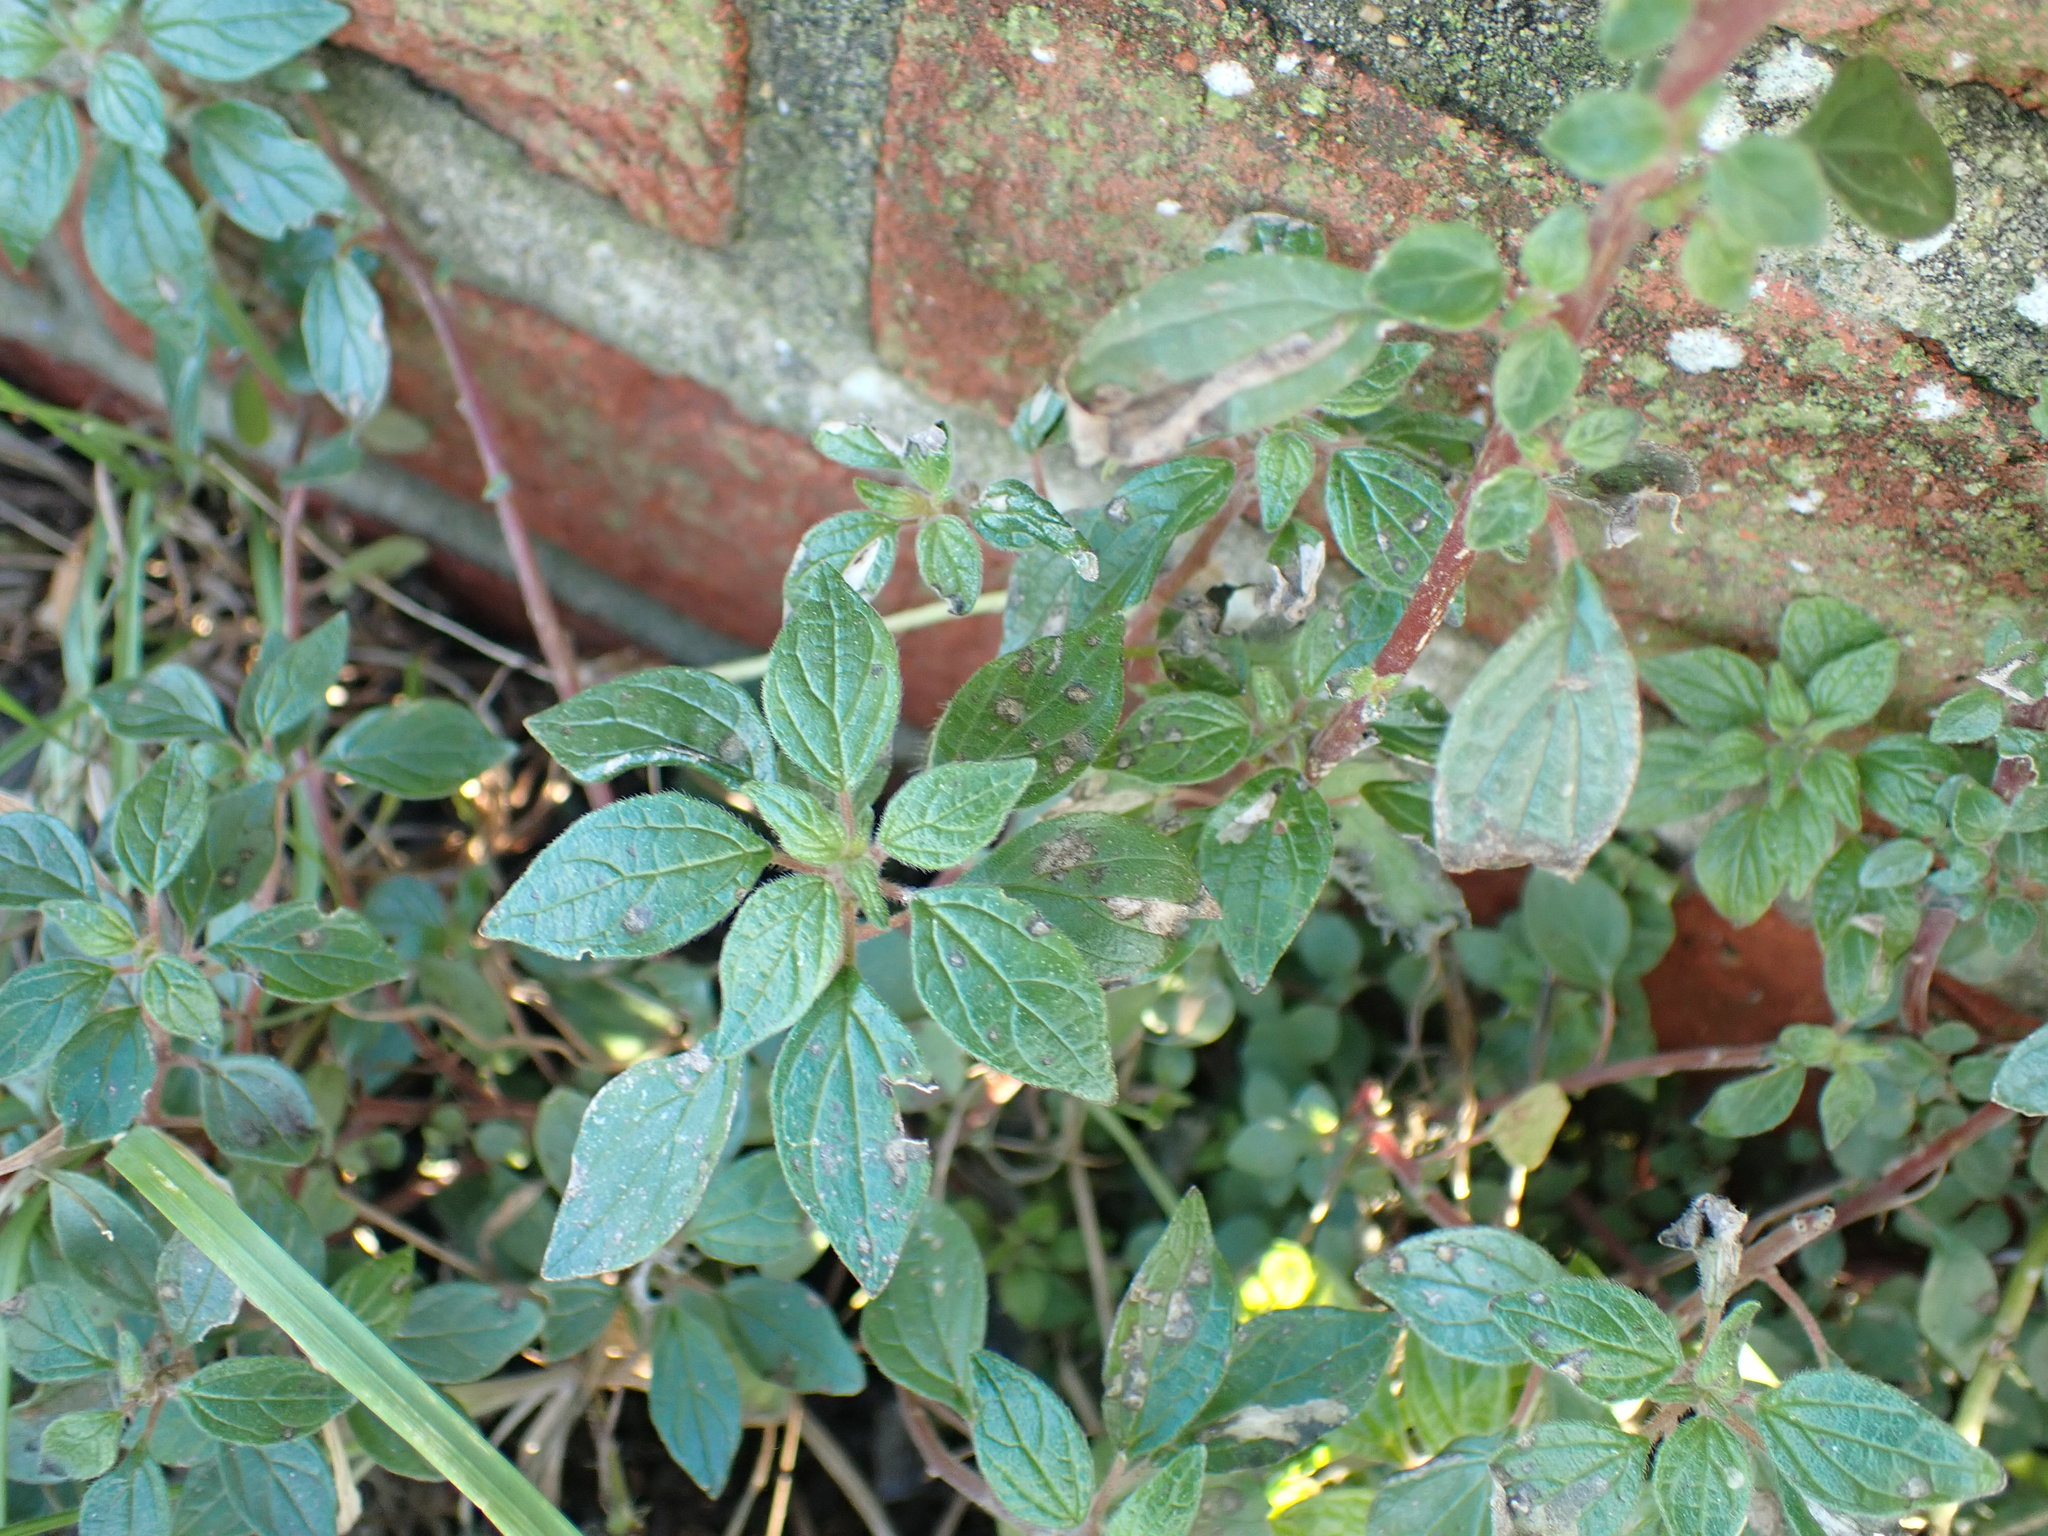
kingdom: Plantae
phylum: Tracheophyta
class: Magnoliopsida
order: Rosales
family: Urticaceae
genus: Parietaria
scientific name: Parietaria judaica
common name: Pellitory-of-the-wall
